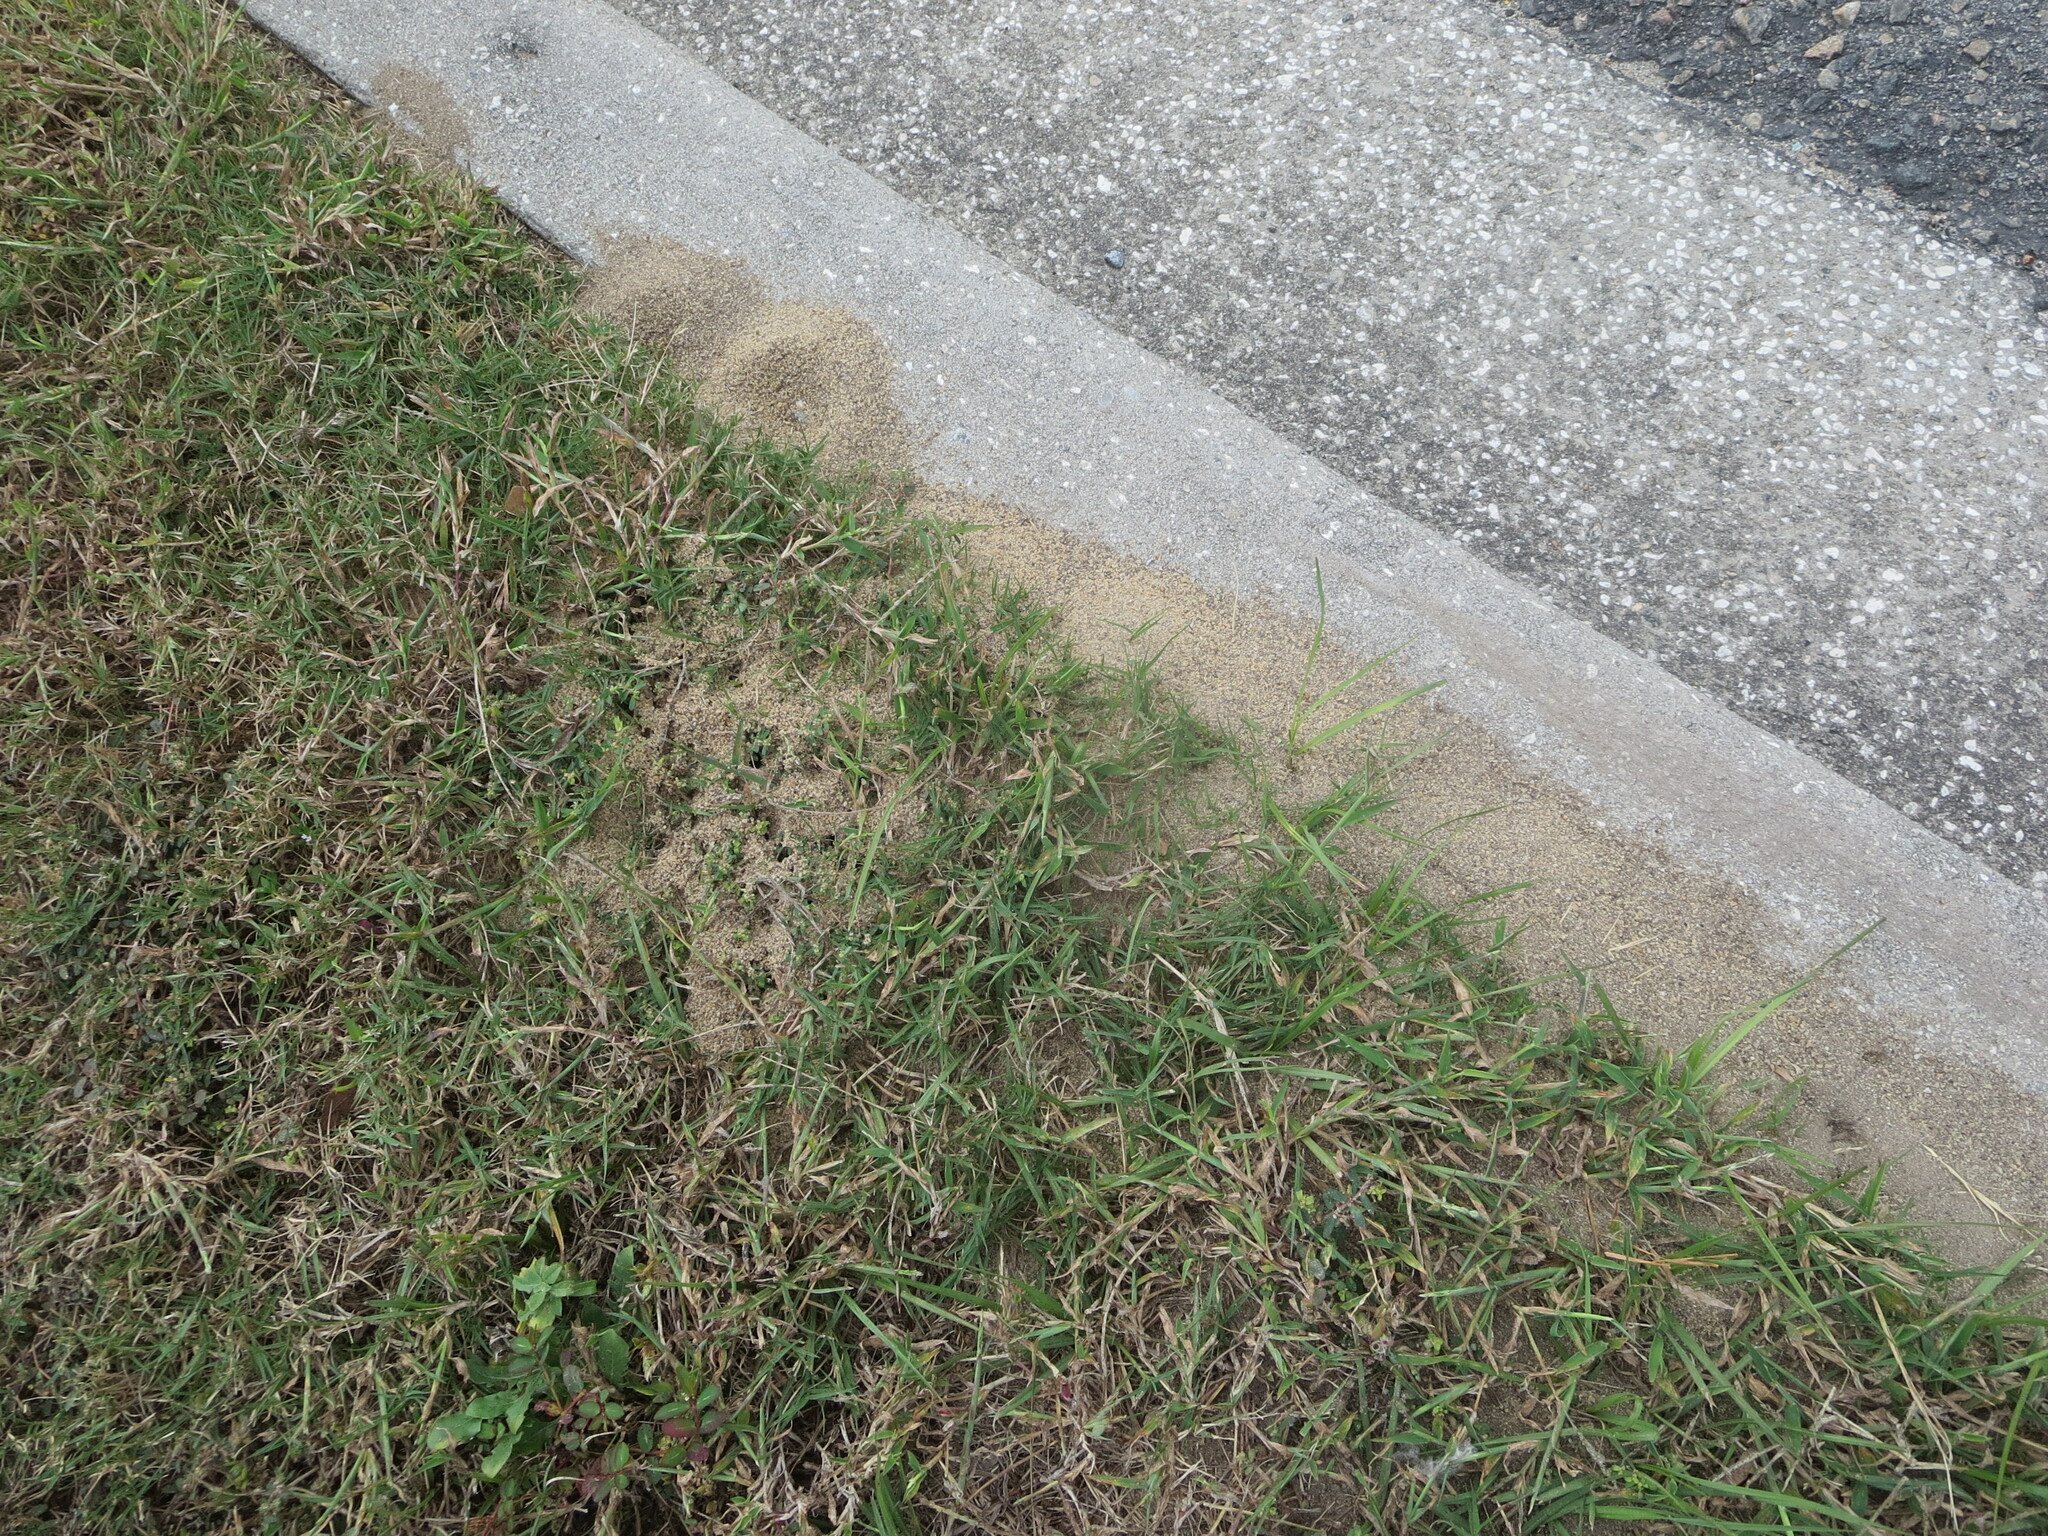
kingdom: Animalia
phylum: Arthropoda
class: Insecta
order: Hymenoptera
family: Formicidae
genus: Solenopsis
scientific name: Solenopsis invicta
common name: Red imported fire ant
